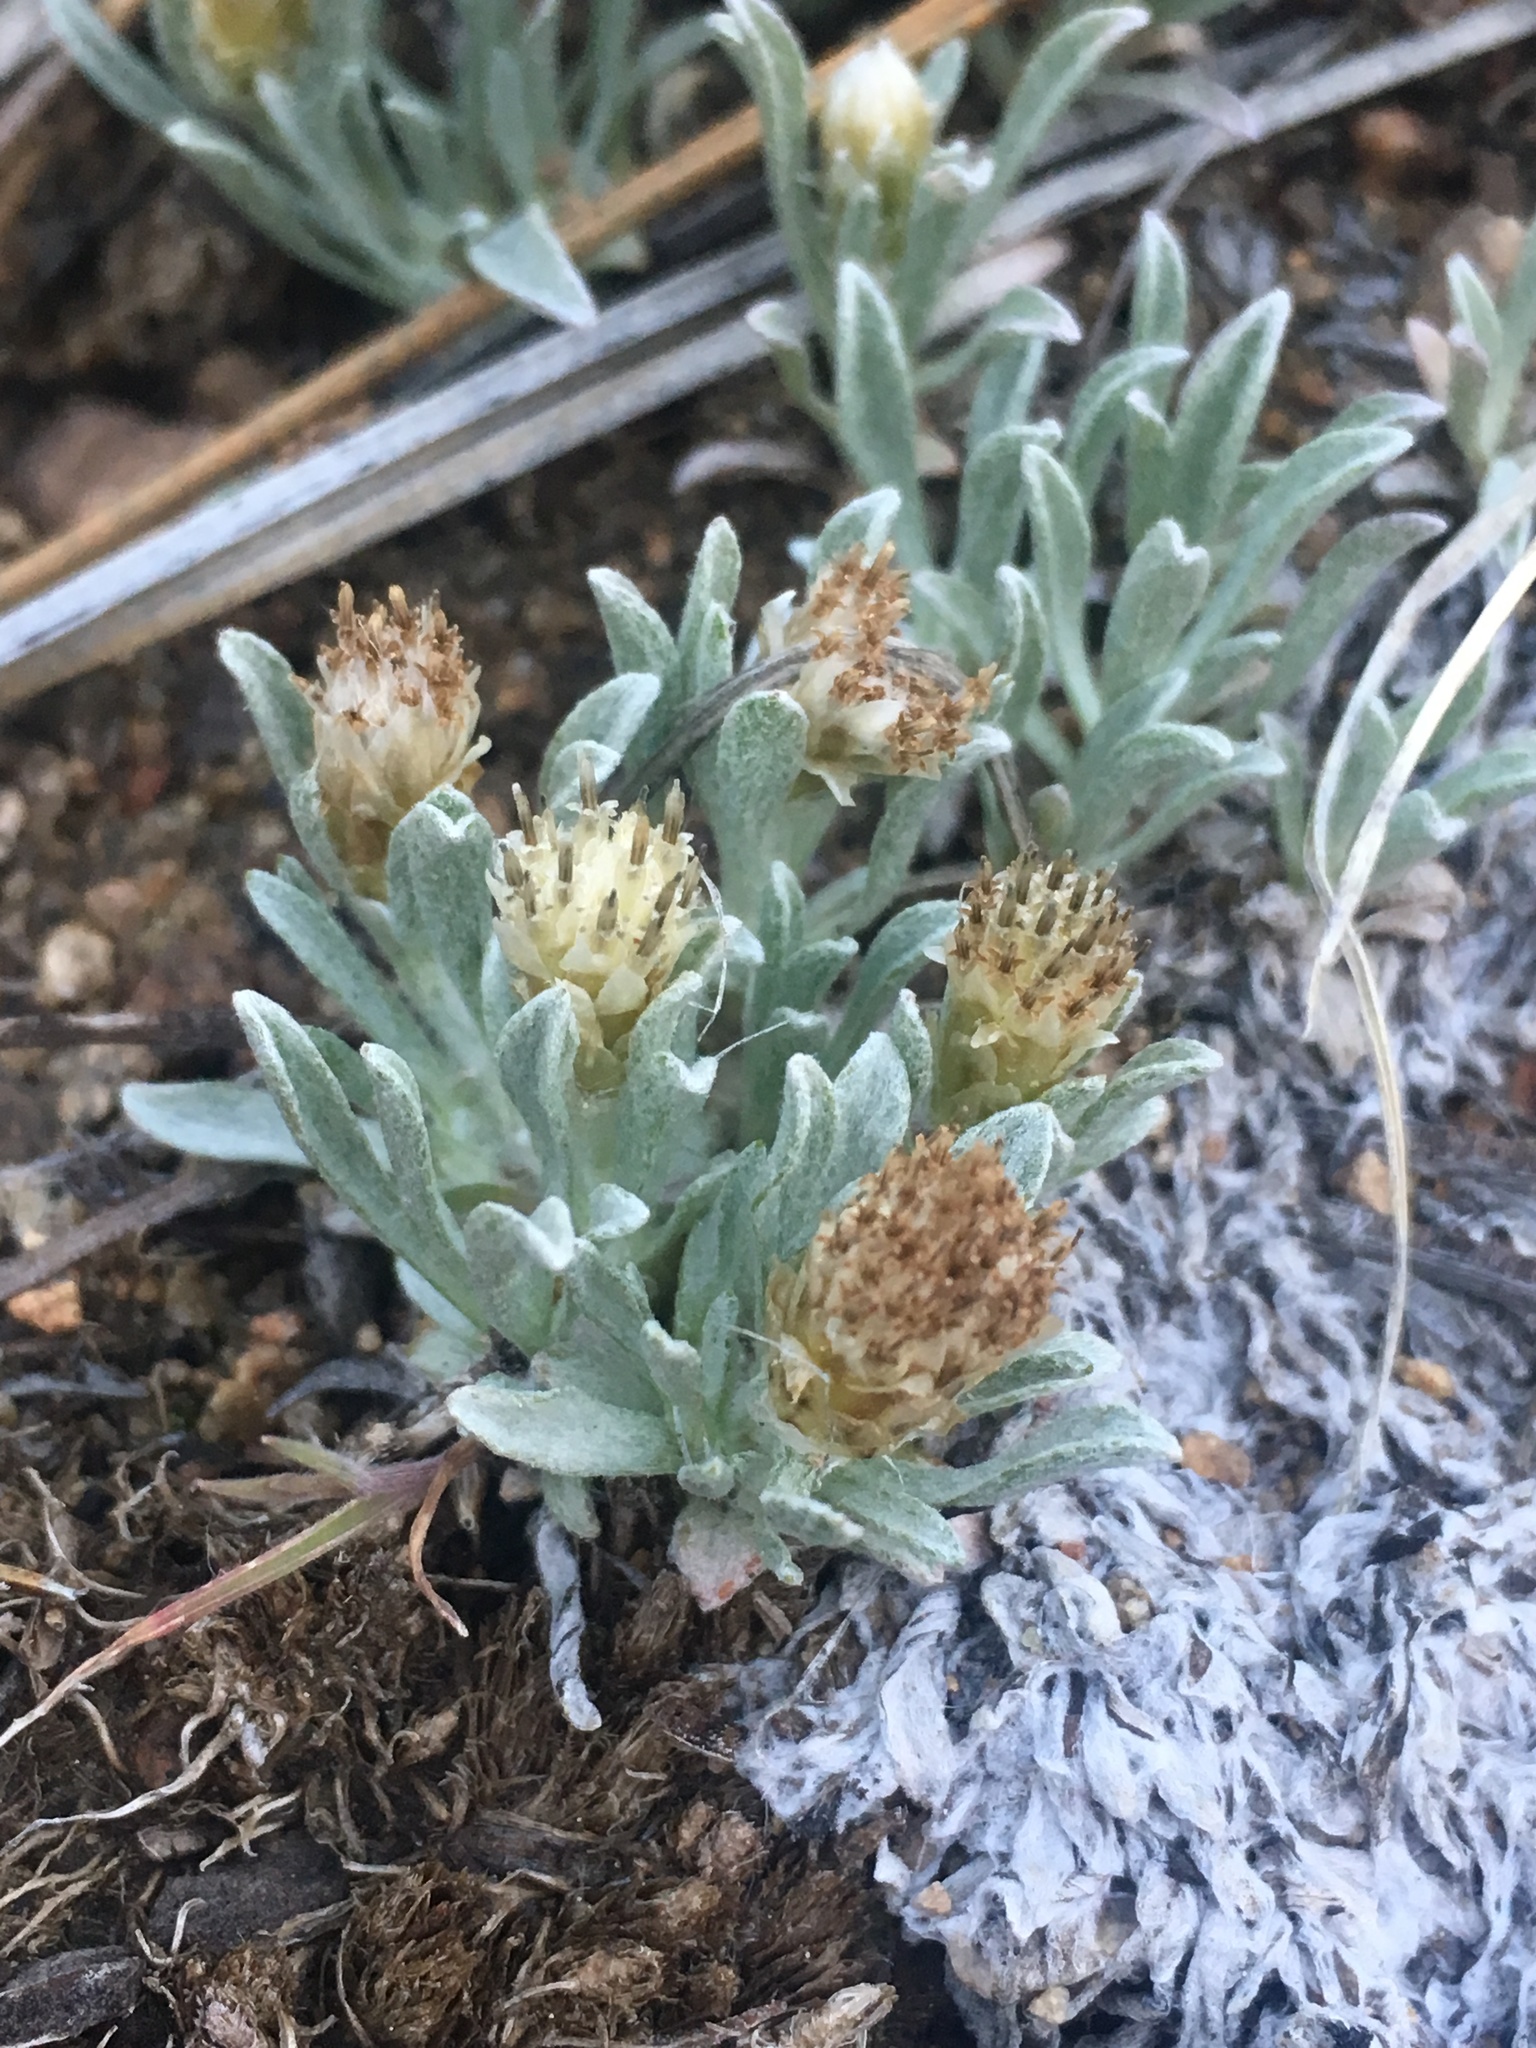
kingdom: Plantae
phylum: Tracheophyta
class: Magnoliopsida
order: Asterales
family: Asteraceae
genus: Antennaria
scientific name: Antennaria dimorpha
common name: Cushion pussytoes
